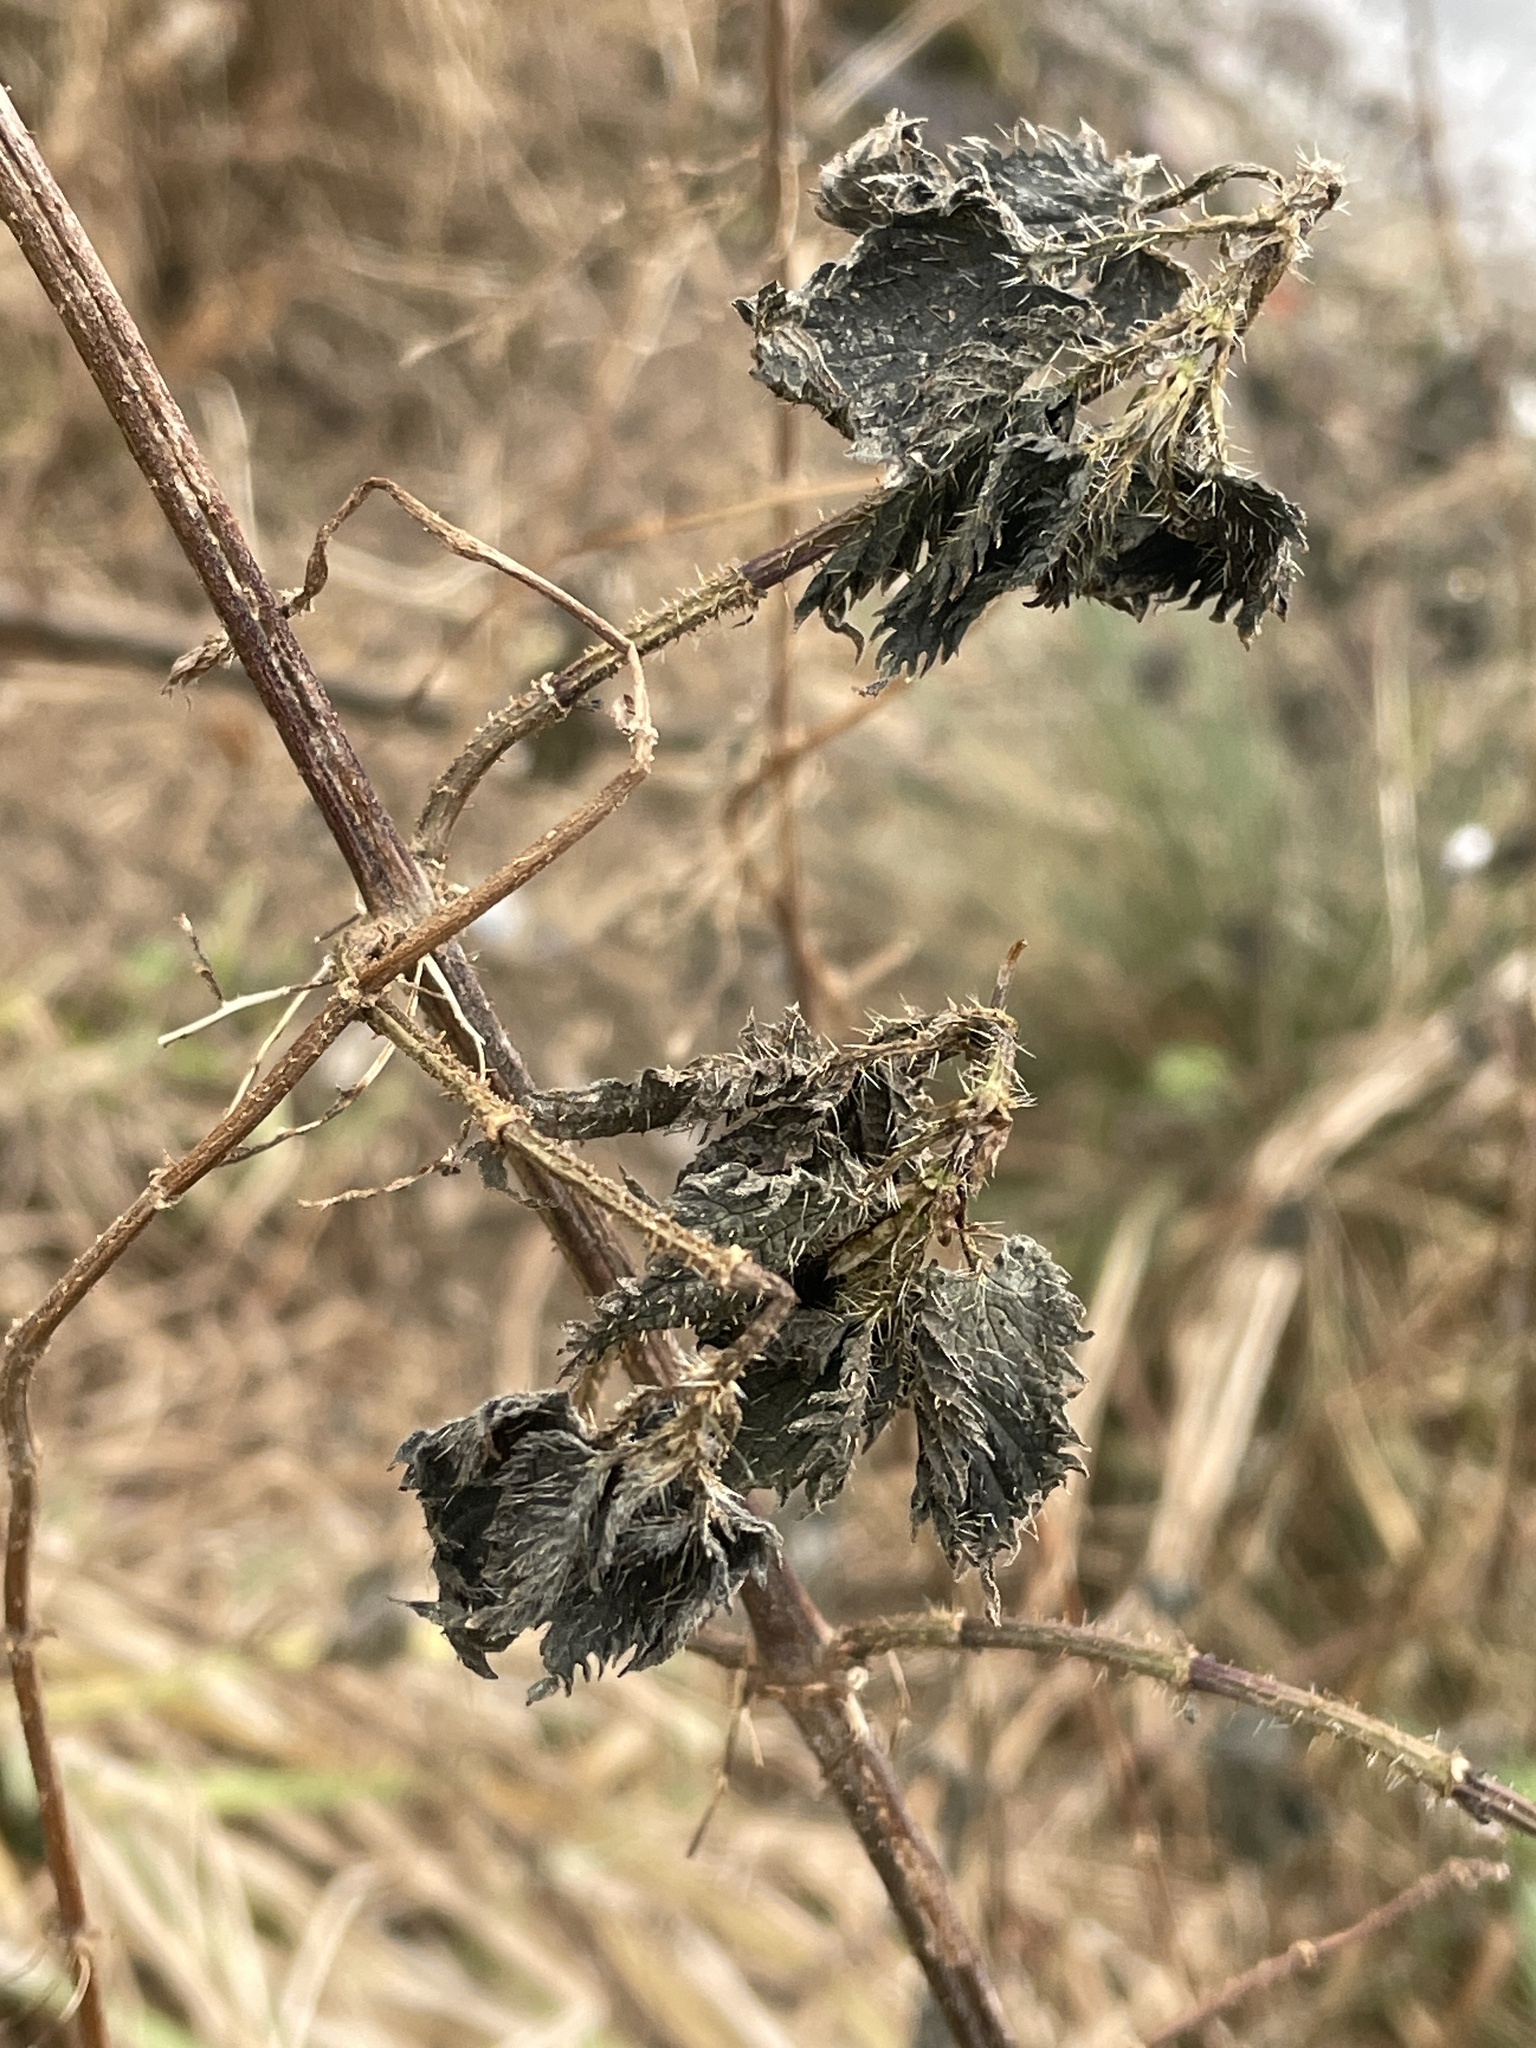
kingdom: Plantae
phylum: Tracheophyta
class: Magnoliopsida
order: Rosales
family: Urticaceae
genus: Urtica
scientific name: Urtica dioica
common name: Common nettle
